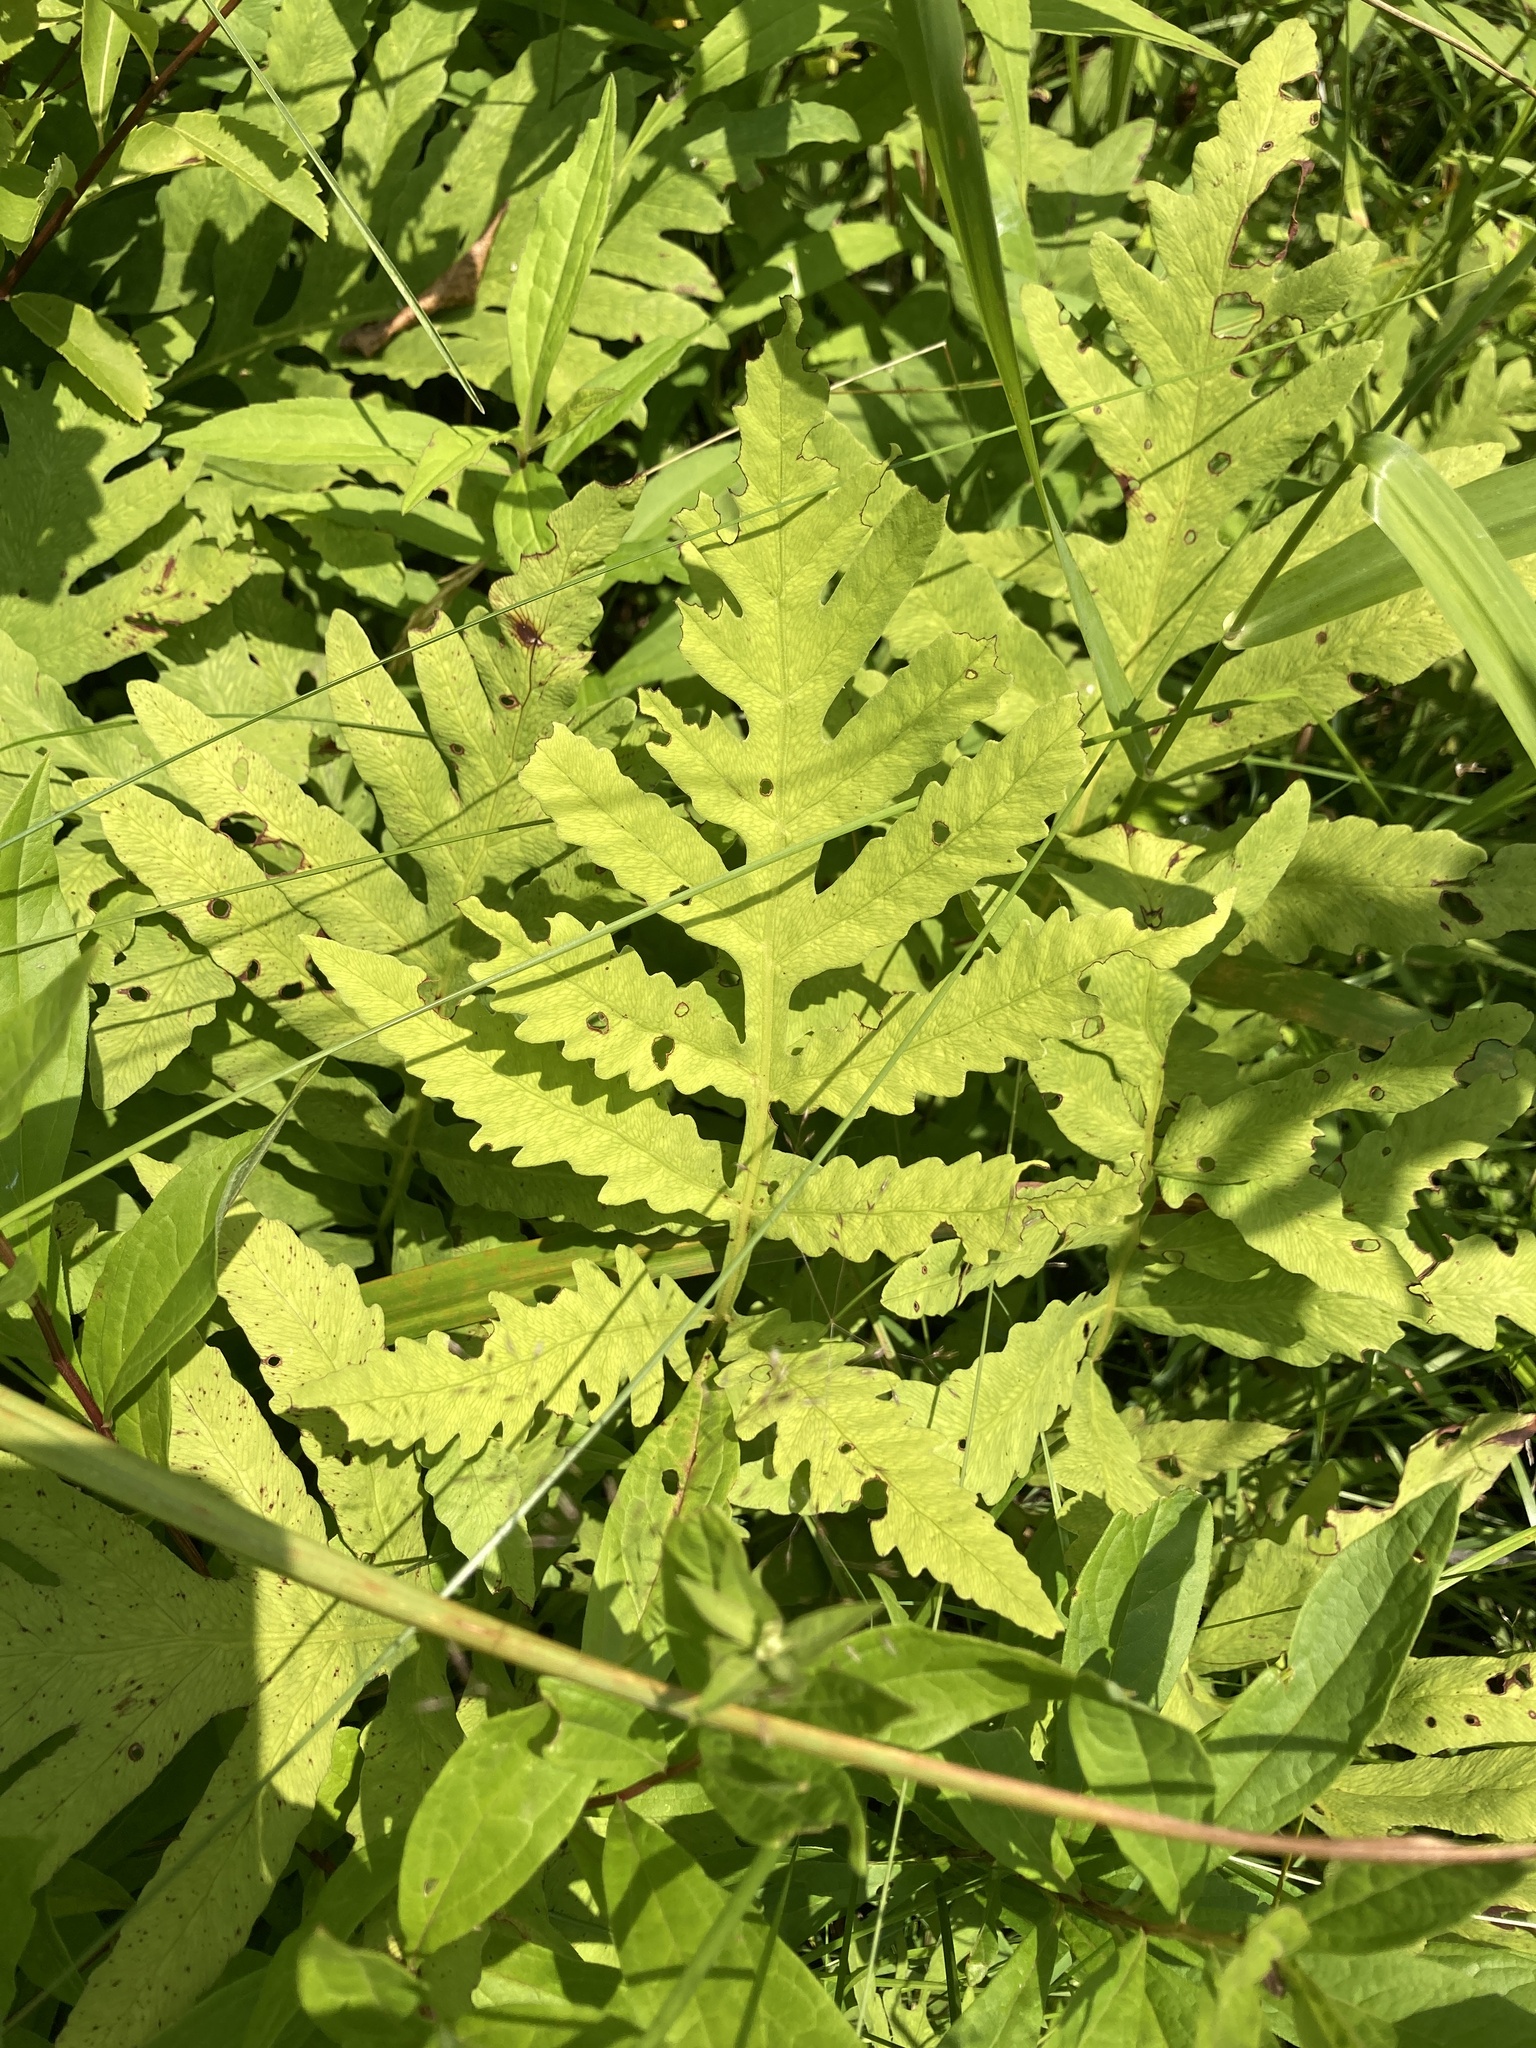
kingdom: Plantae
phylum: Tracheophyta
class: Polypodiopsida
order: Polypodiales
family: Onocleaceae
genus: Onoclea
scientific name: Onoclea sensibilis
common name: Sensitive fern
